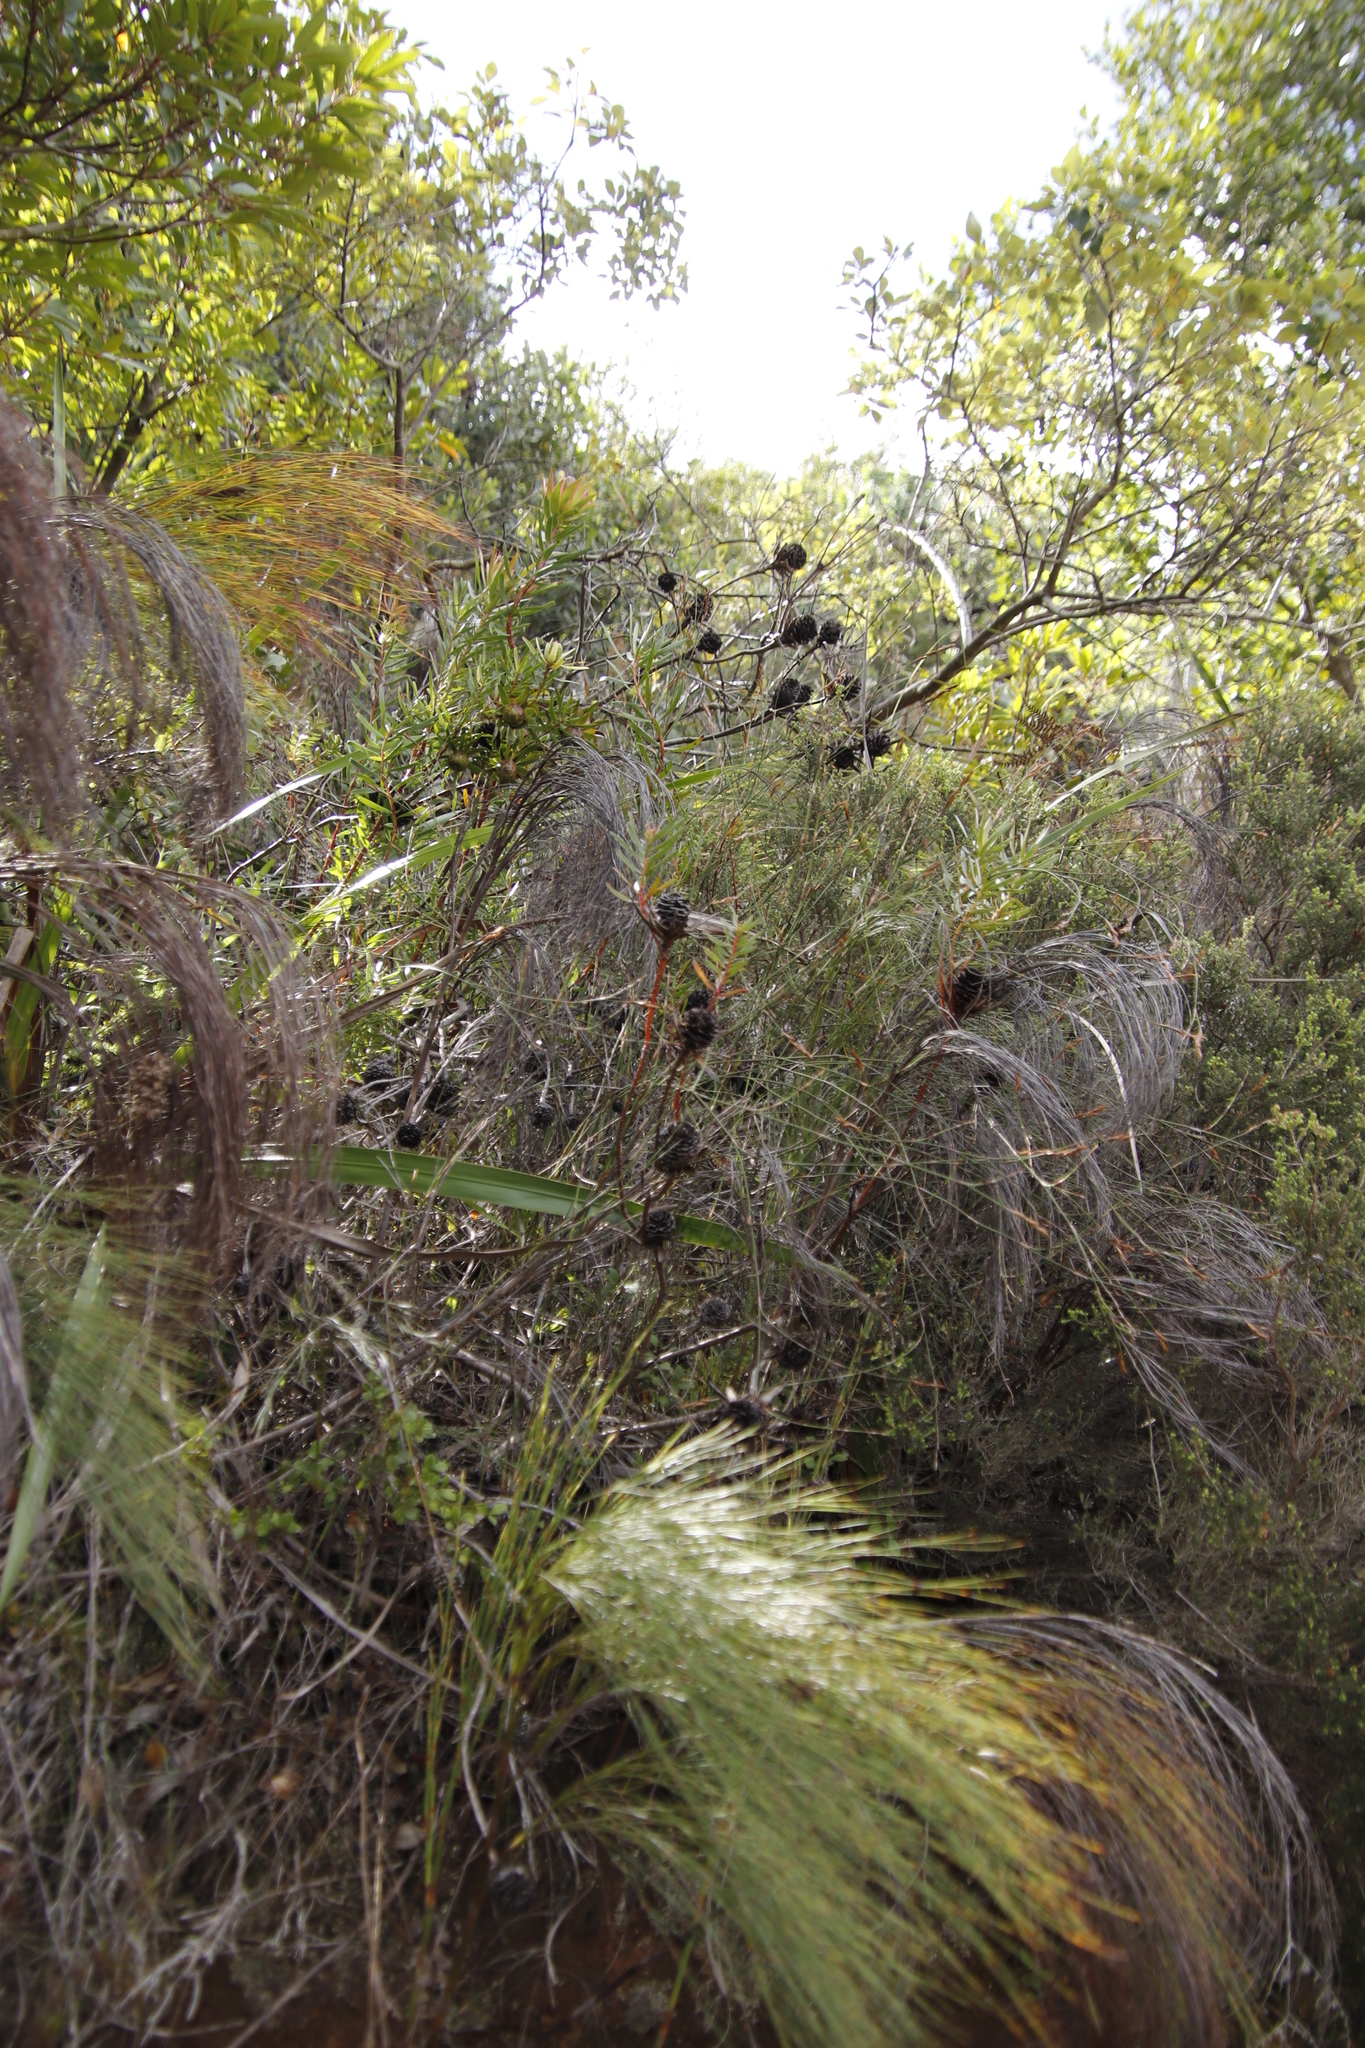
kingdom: Plantae
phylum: Tracheophyta
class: Magnoliopsida
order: Proteales
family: Proteaceae
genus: Leucadendron
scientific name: Leucadendron spissifolium
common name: Spear-leaf conebush
